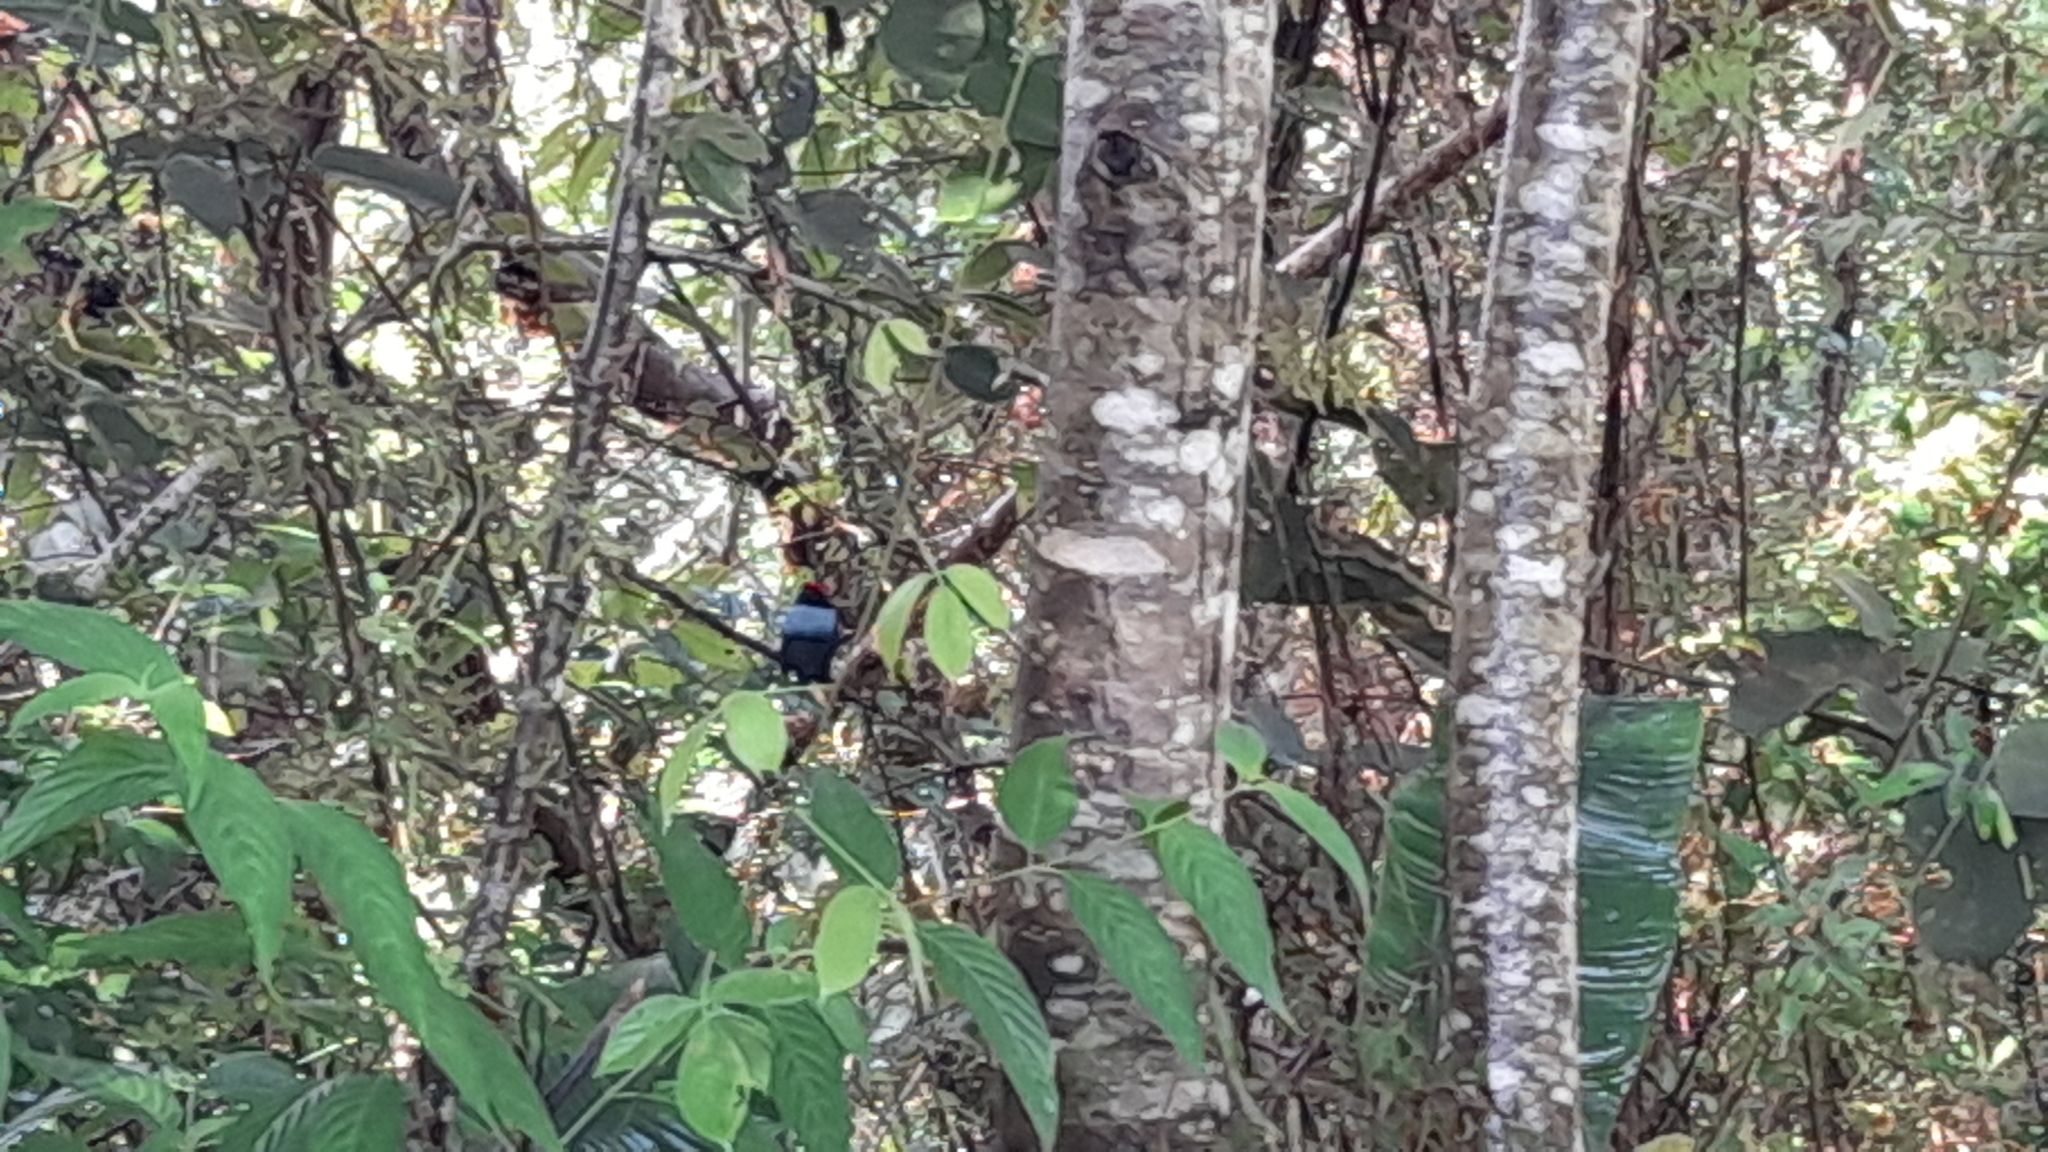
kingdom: Animalia
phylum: Chordata
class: Aves
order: Passeriformes
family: Pipridae
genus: Chiroxiphia
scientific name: Chiroxiphia lanceolata
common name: Lance-tailed manakin
